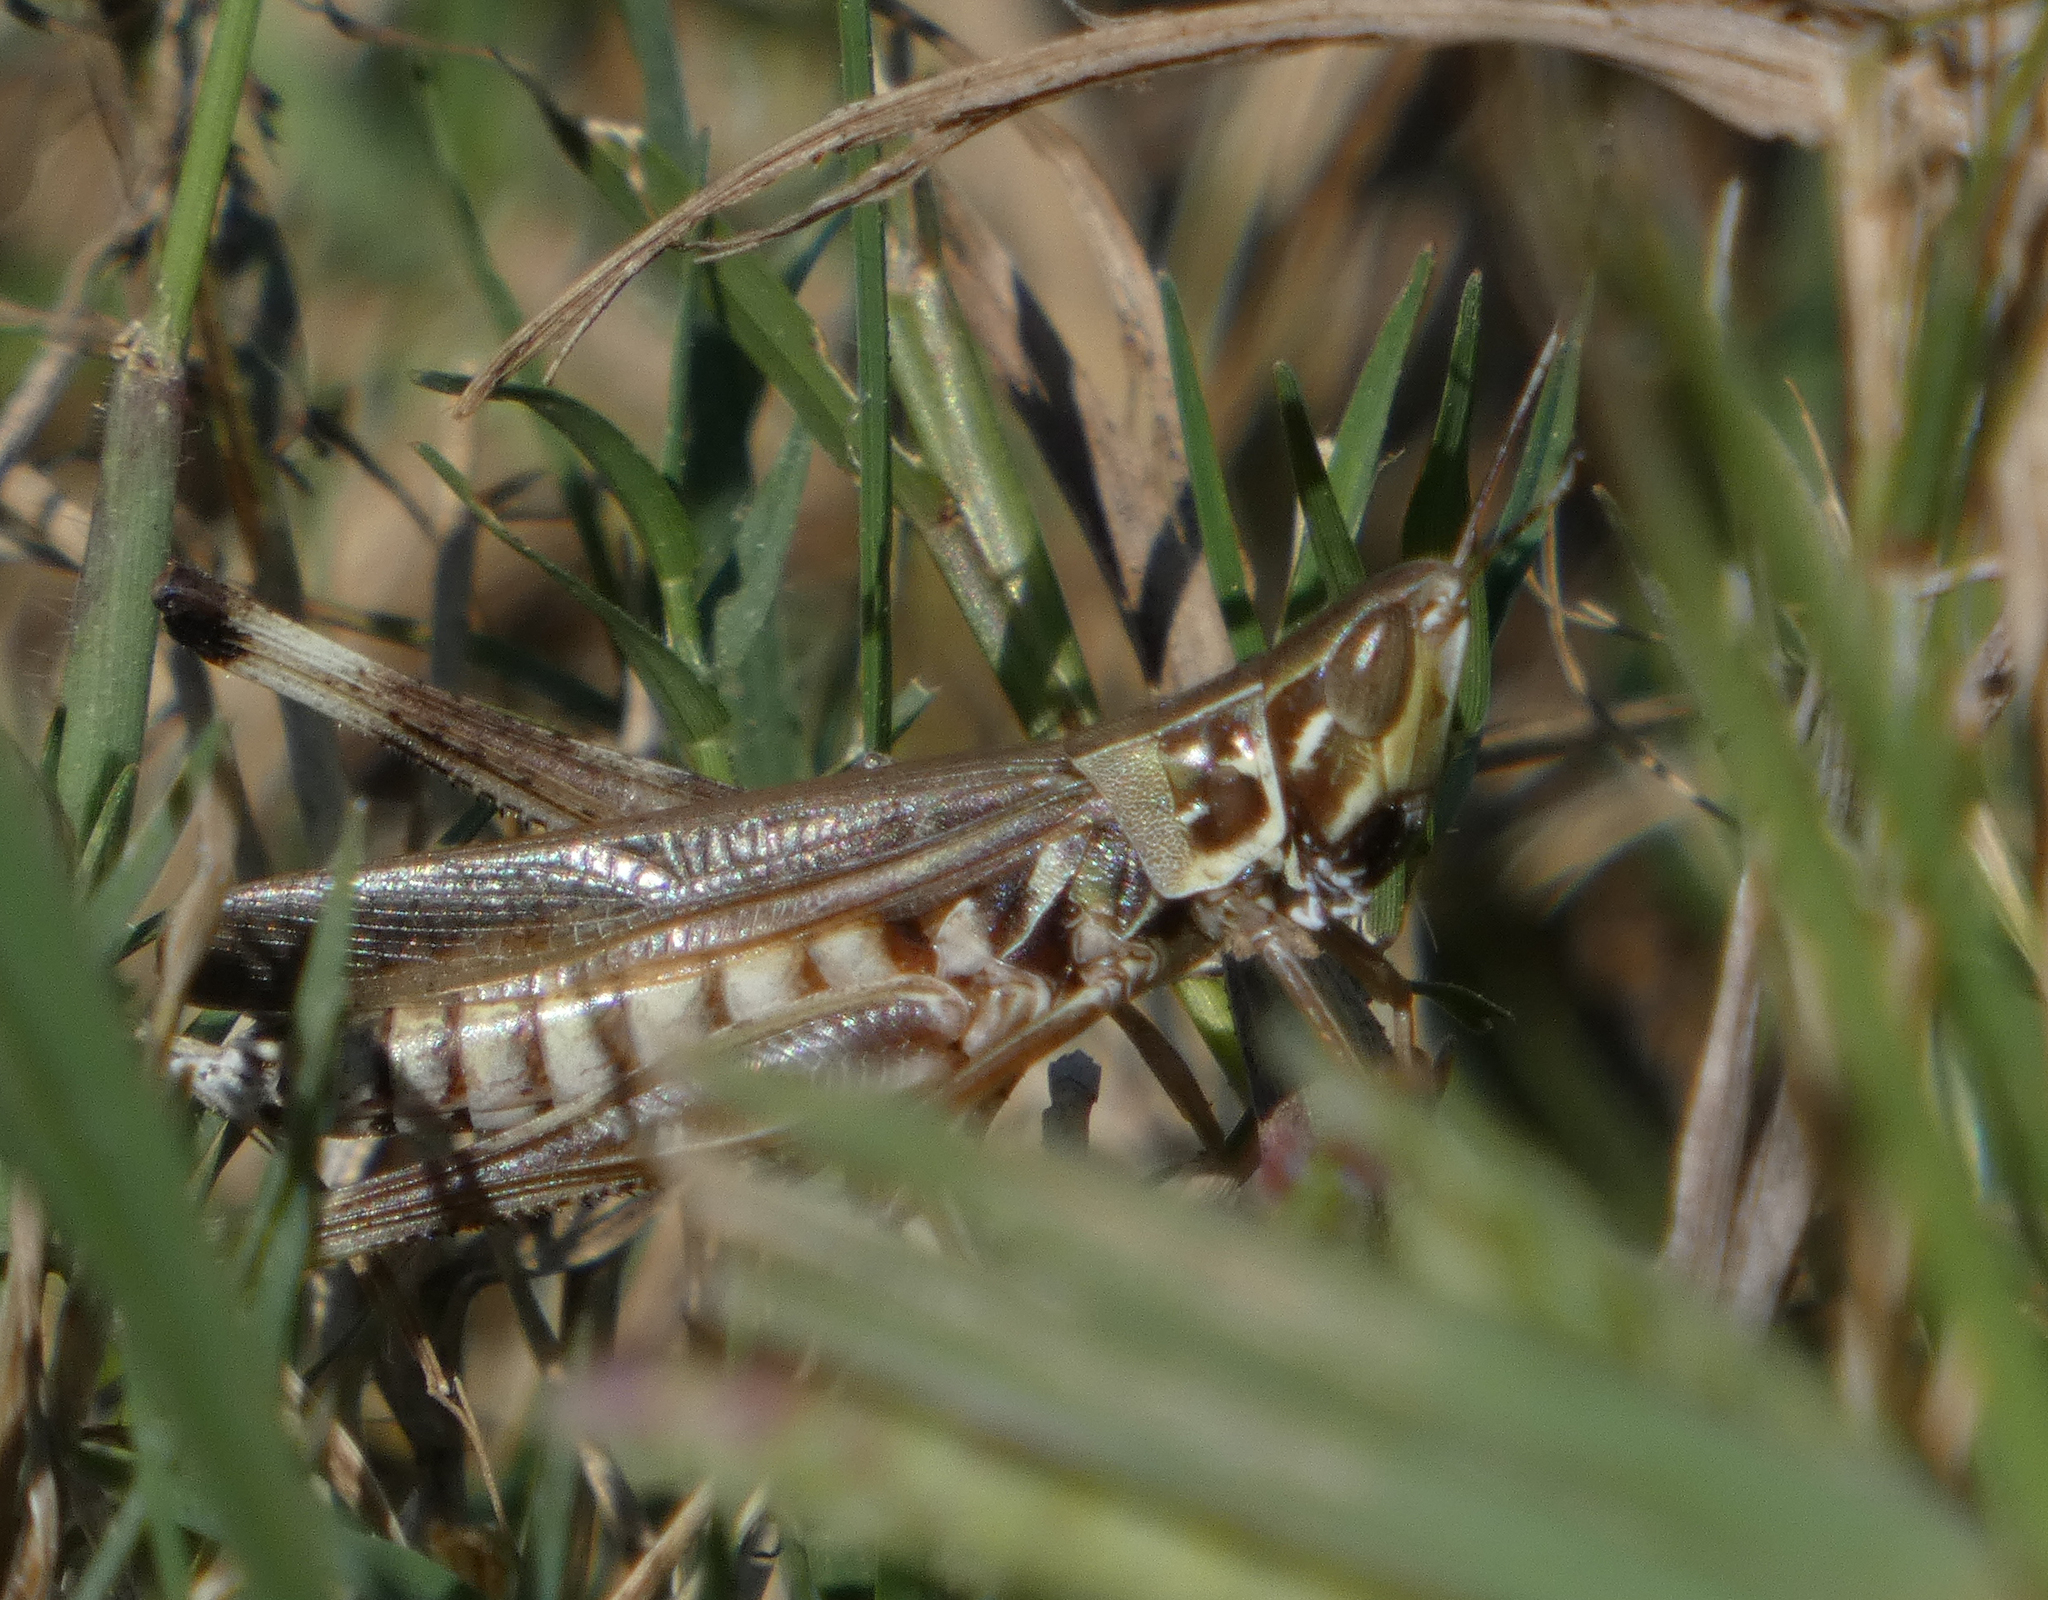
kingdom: Animalia
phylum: Arthropoda
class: Insecta
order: Orthoptera
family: Acrididae
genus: Syrbula
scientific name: Syrbula admirabilis
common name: Handsome grasshopper
